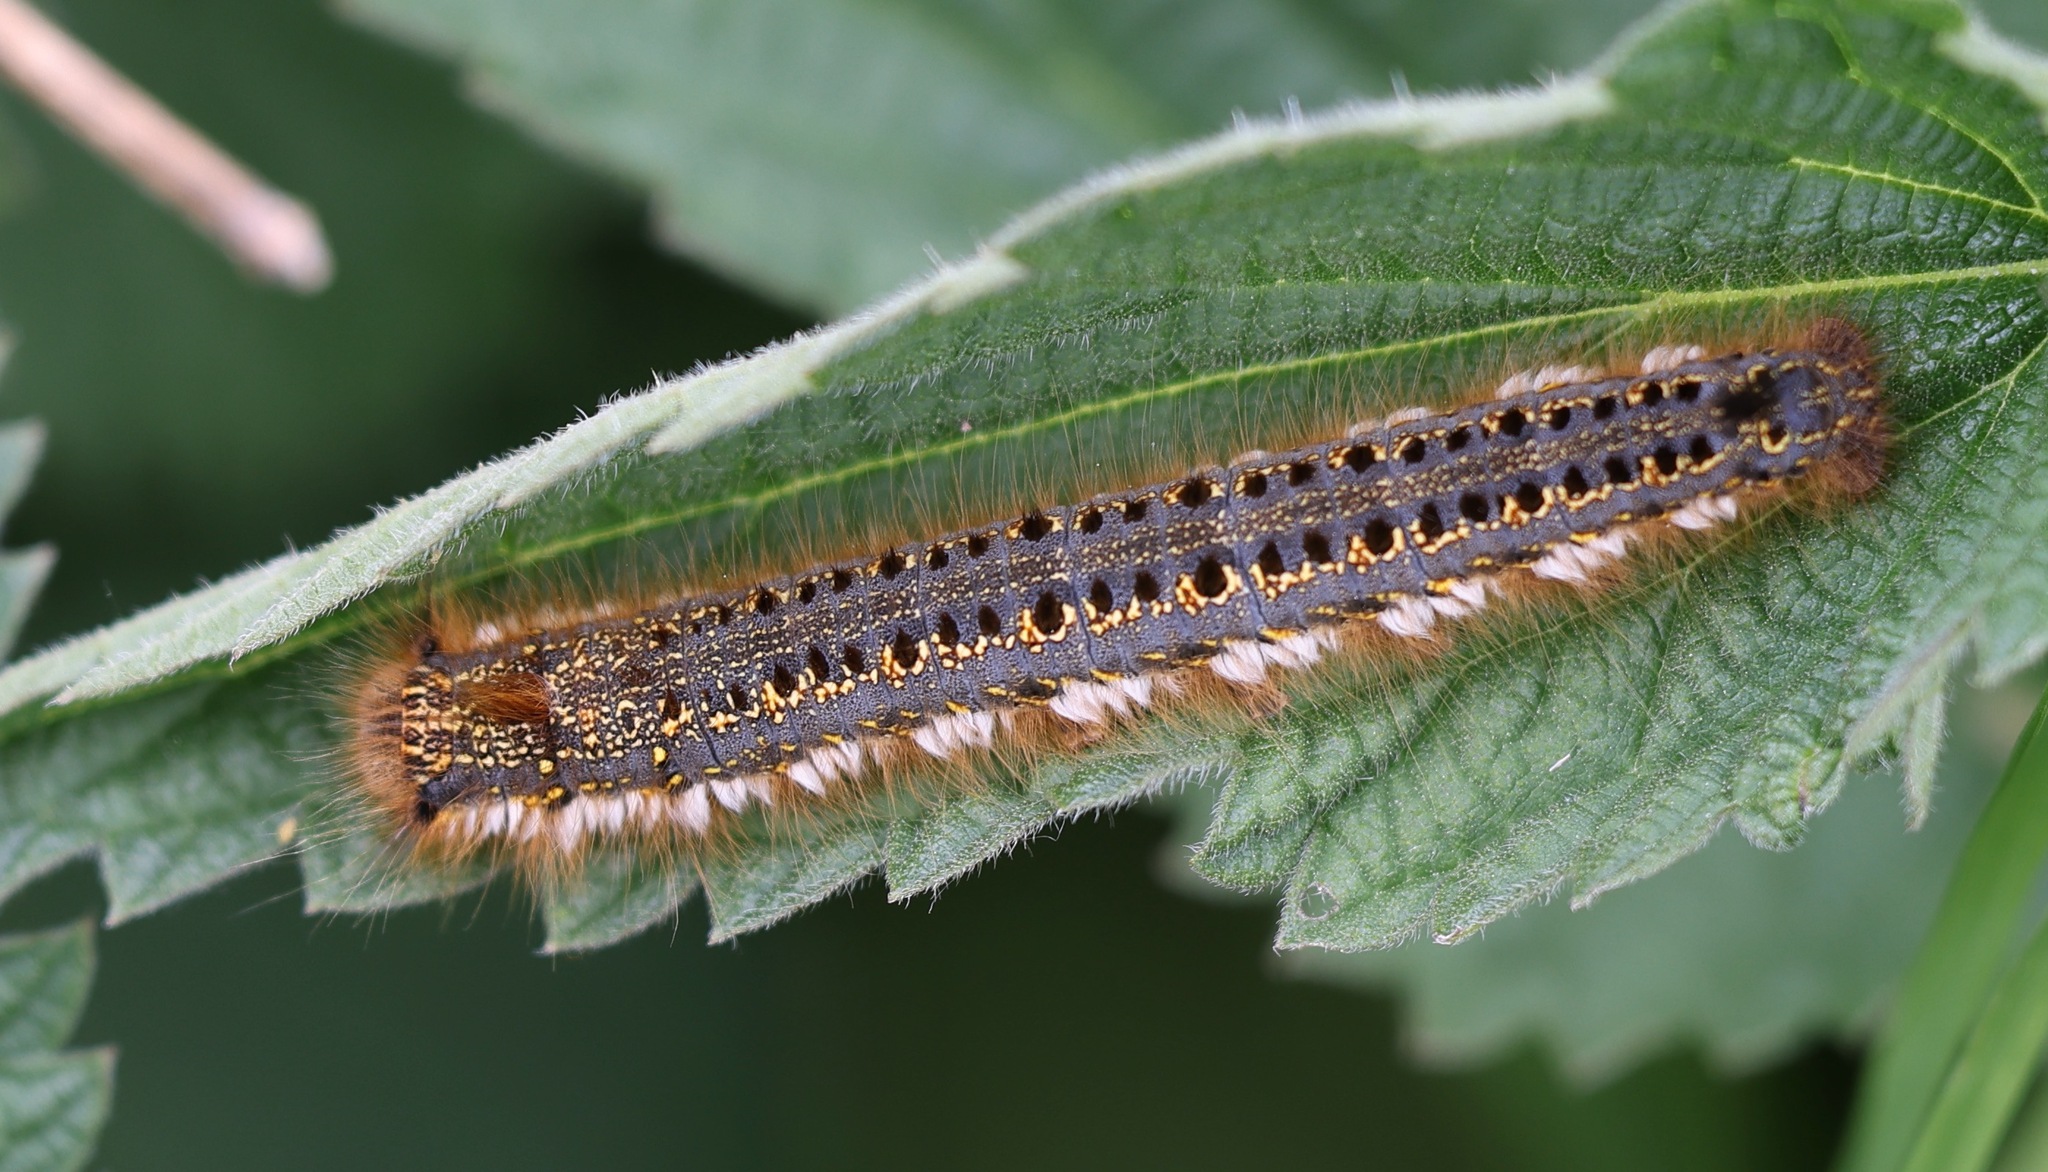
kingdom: Animalia
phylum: Arthropoda
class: Insecta
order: Lepidoptera
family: Lasiocampidae
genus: Euthrix
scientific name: Euthrix potatoria
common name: Drinker
